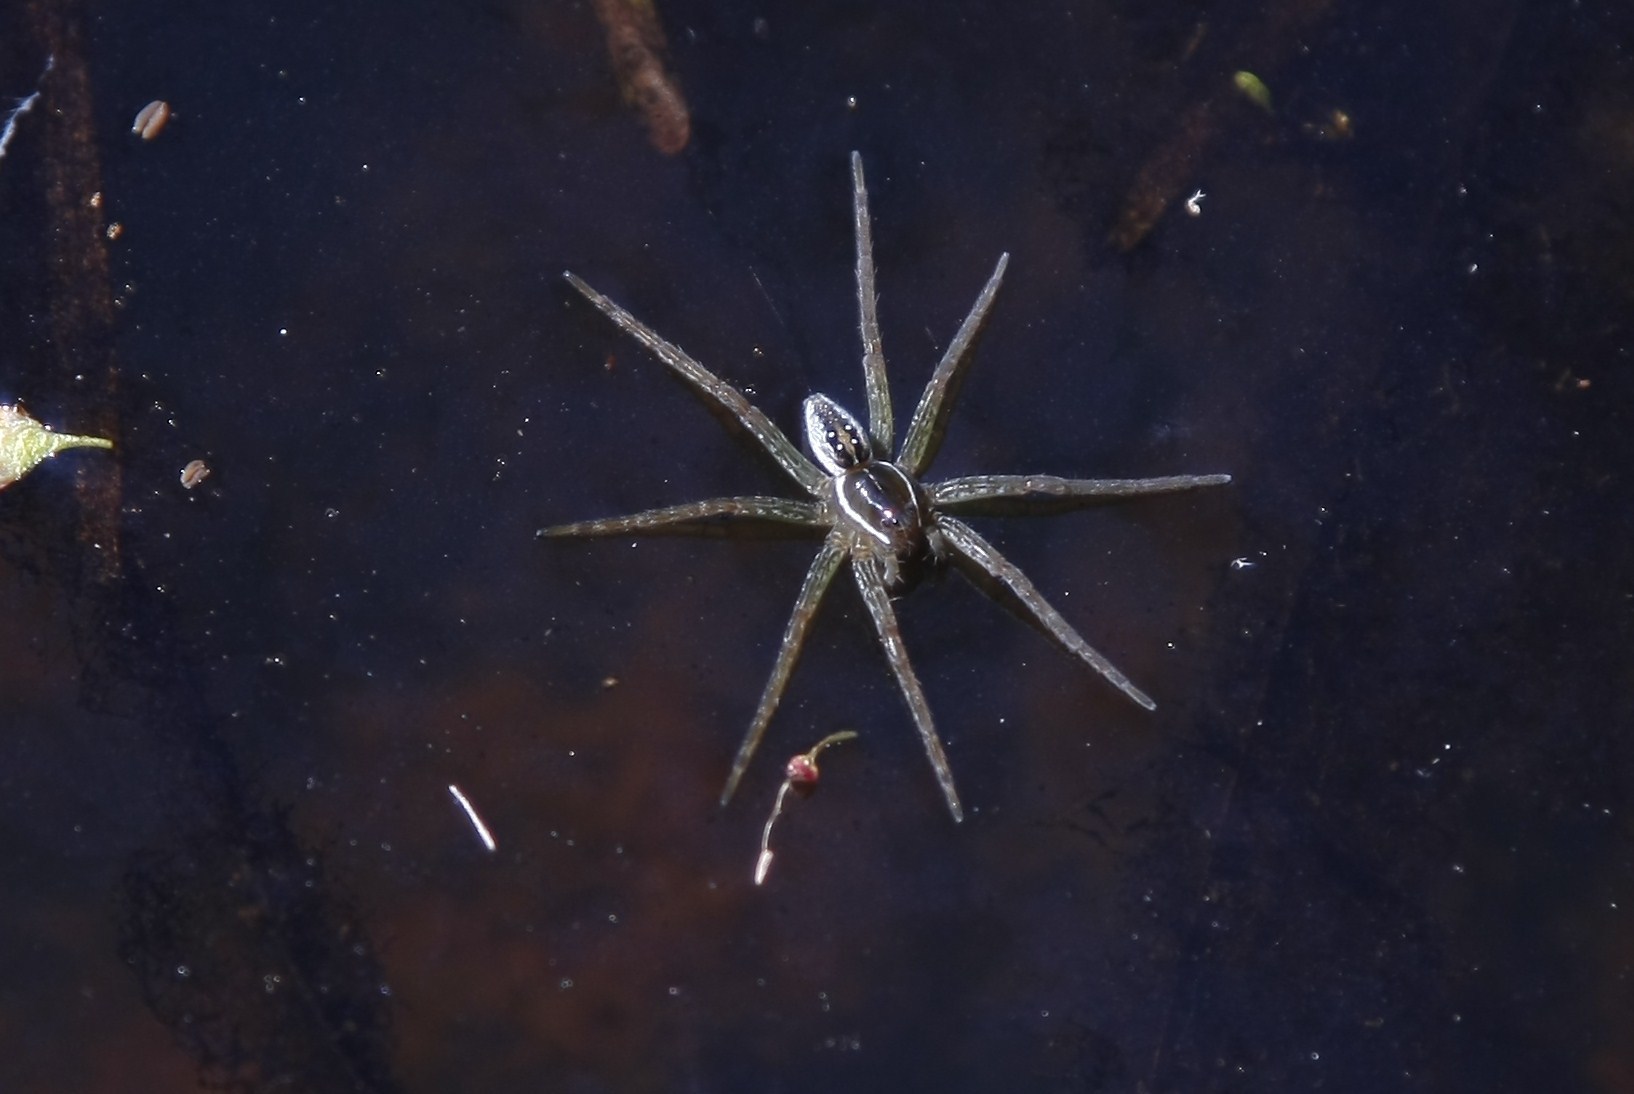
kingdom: Animalia
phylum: Arthropoda
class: Arachnida
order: Araneae
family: Pisauridae
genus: Dolomedes
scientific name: Dolomedes triton
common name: Six-spotted fishing spider
